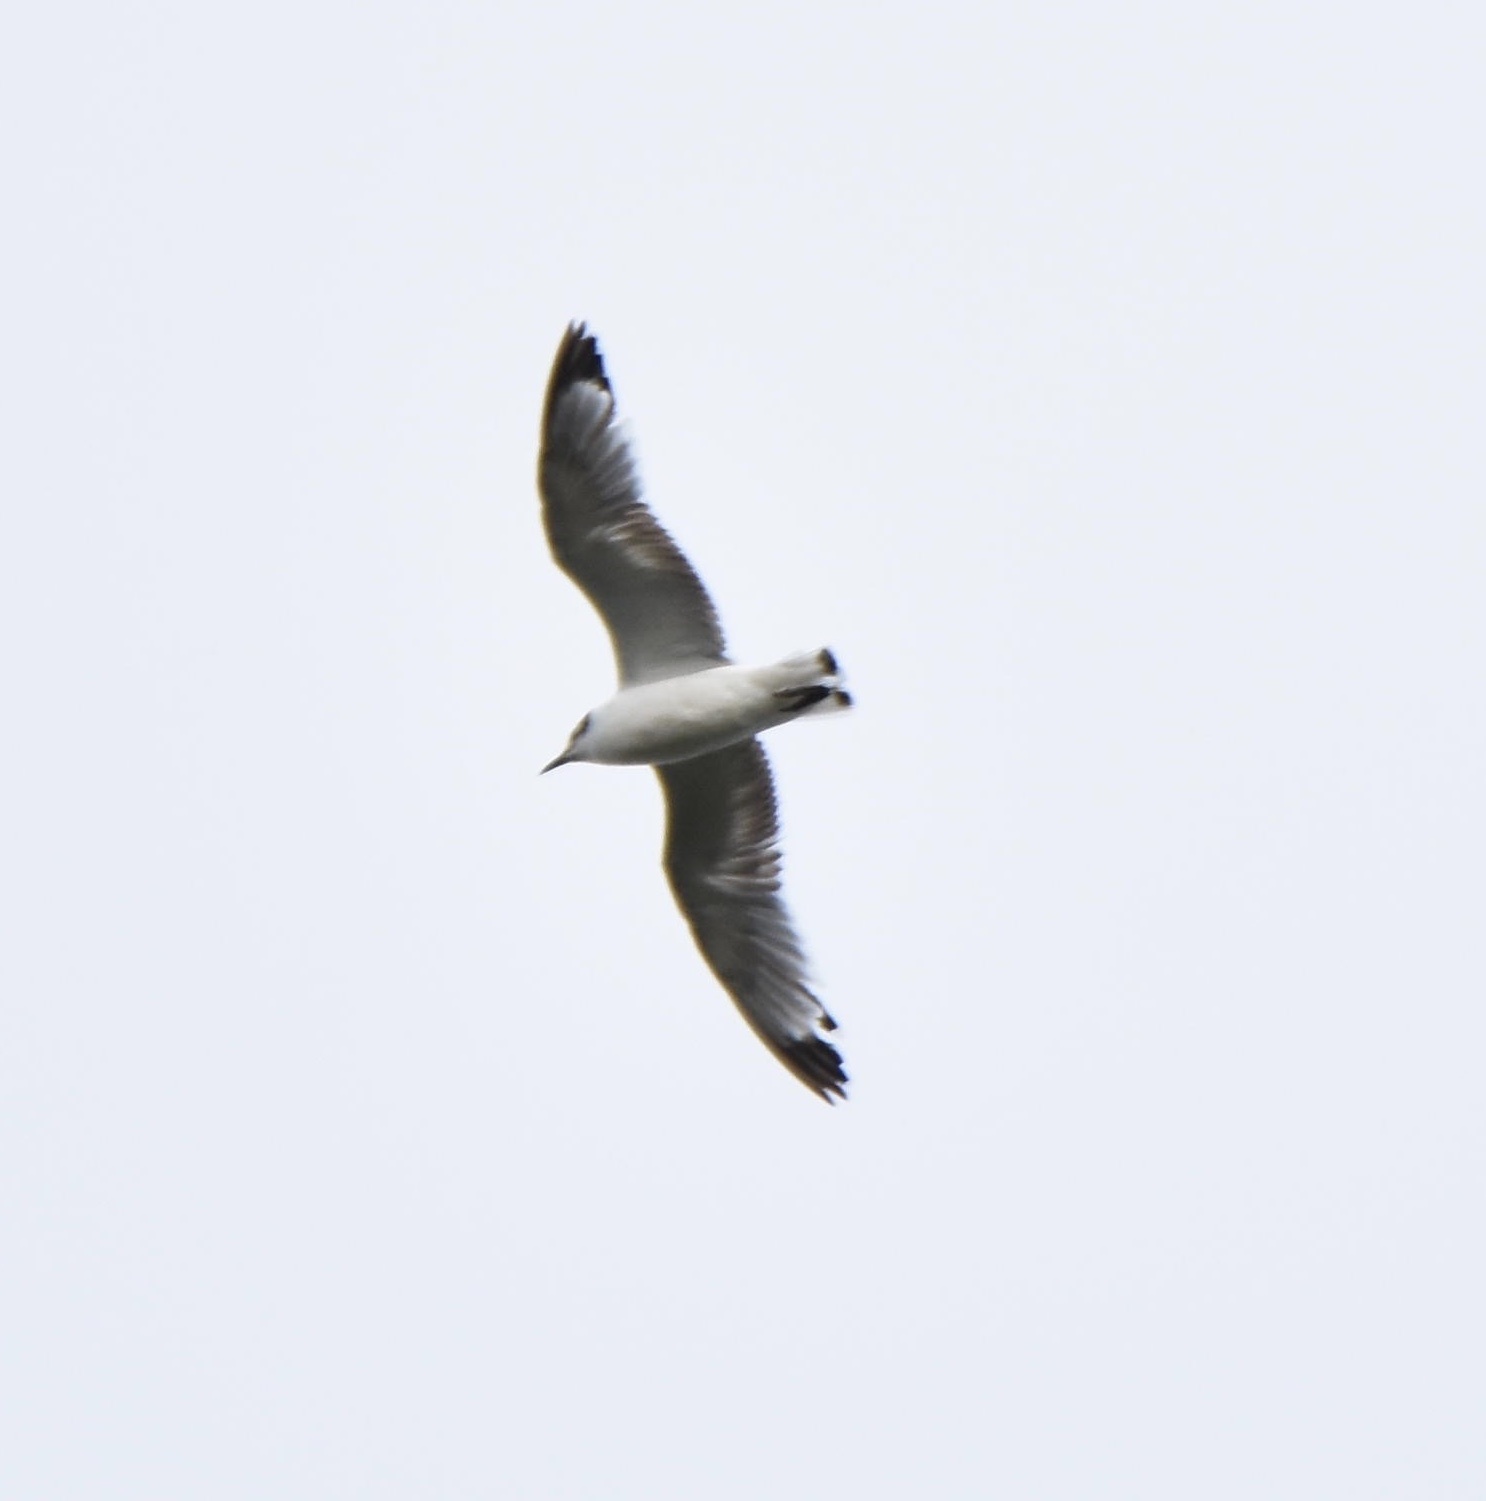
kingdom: Animalia
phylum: Chordata
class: Aves
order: Charadriiformes
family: Laridae
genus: Leucophaeus
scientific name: Leucophaeus pipixcan
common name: Franklin's gull
